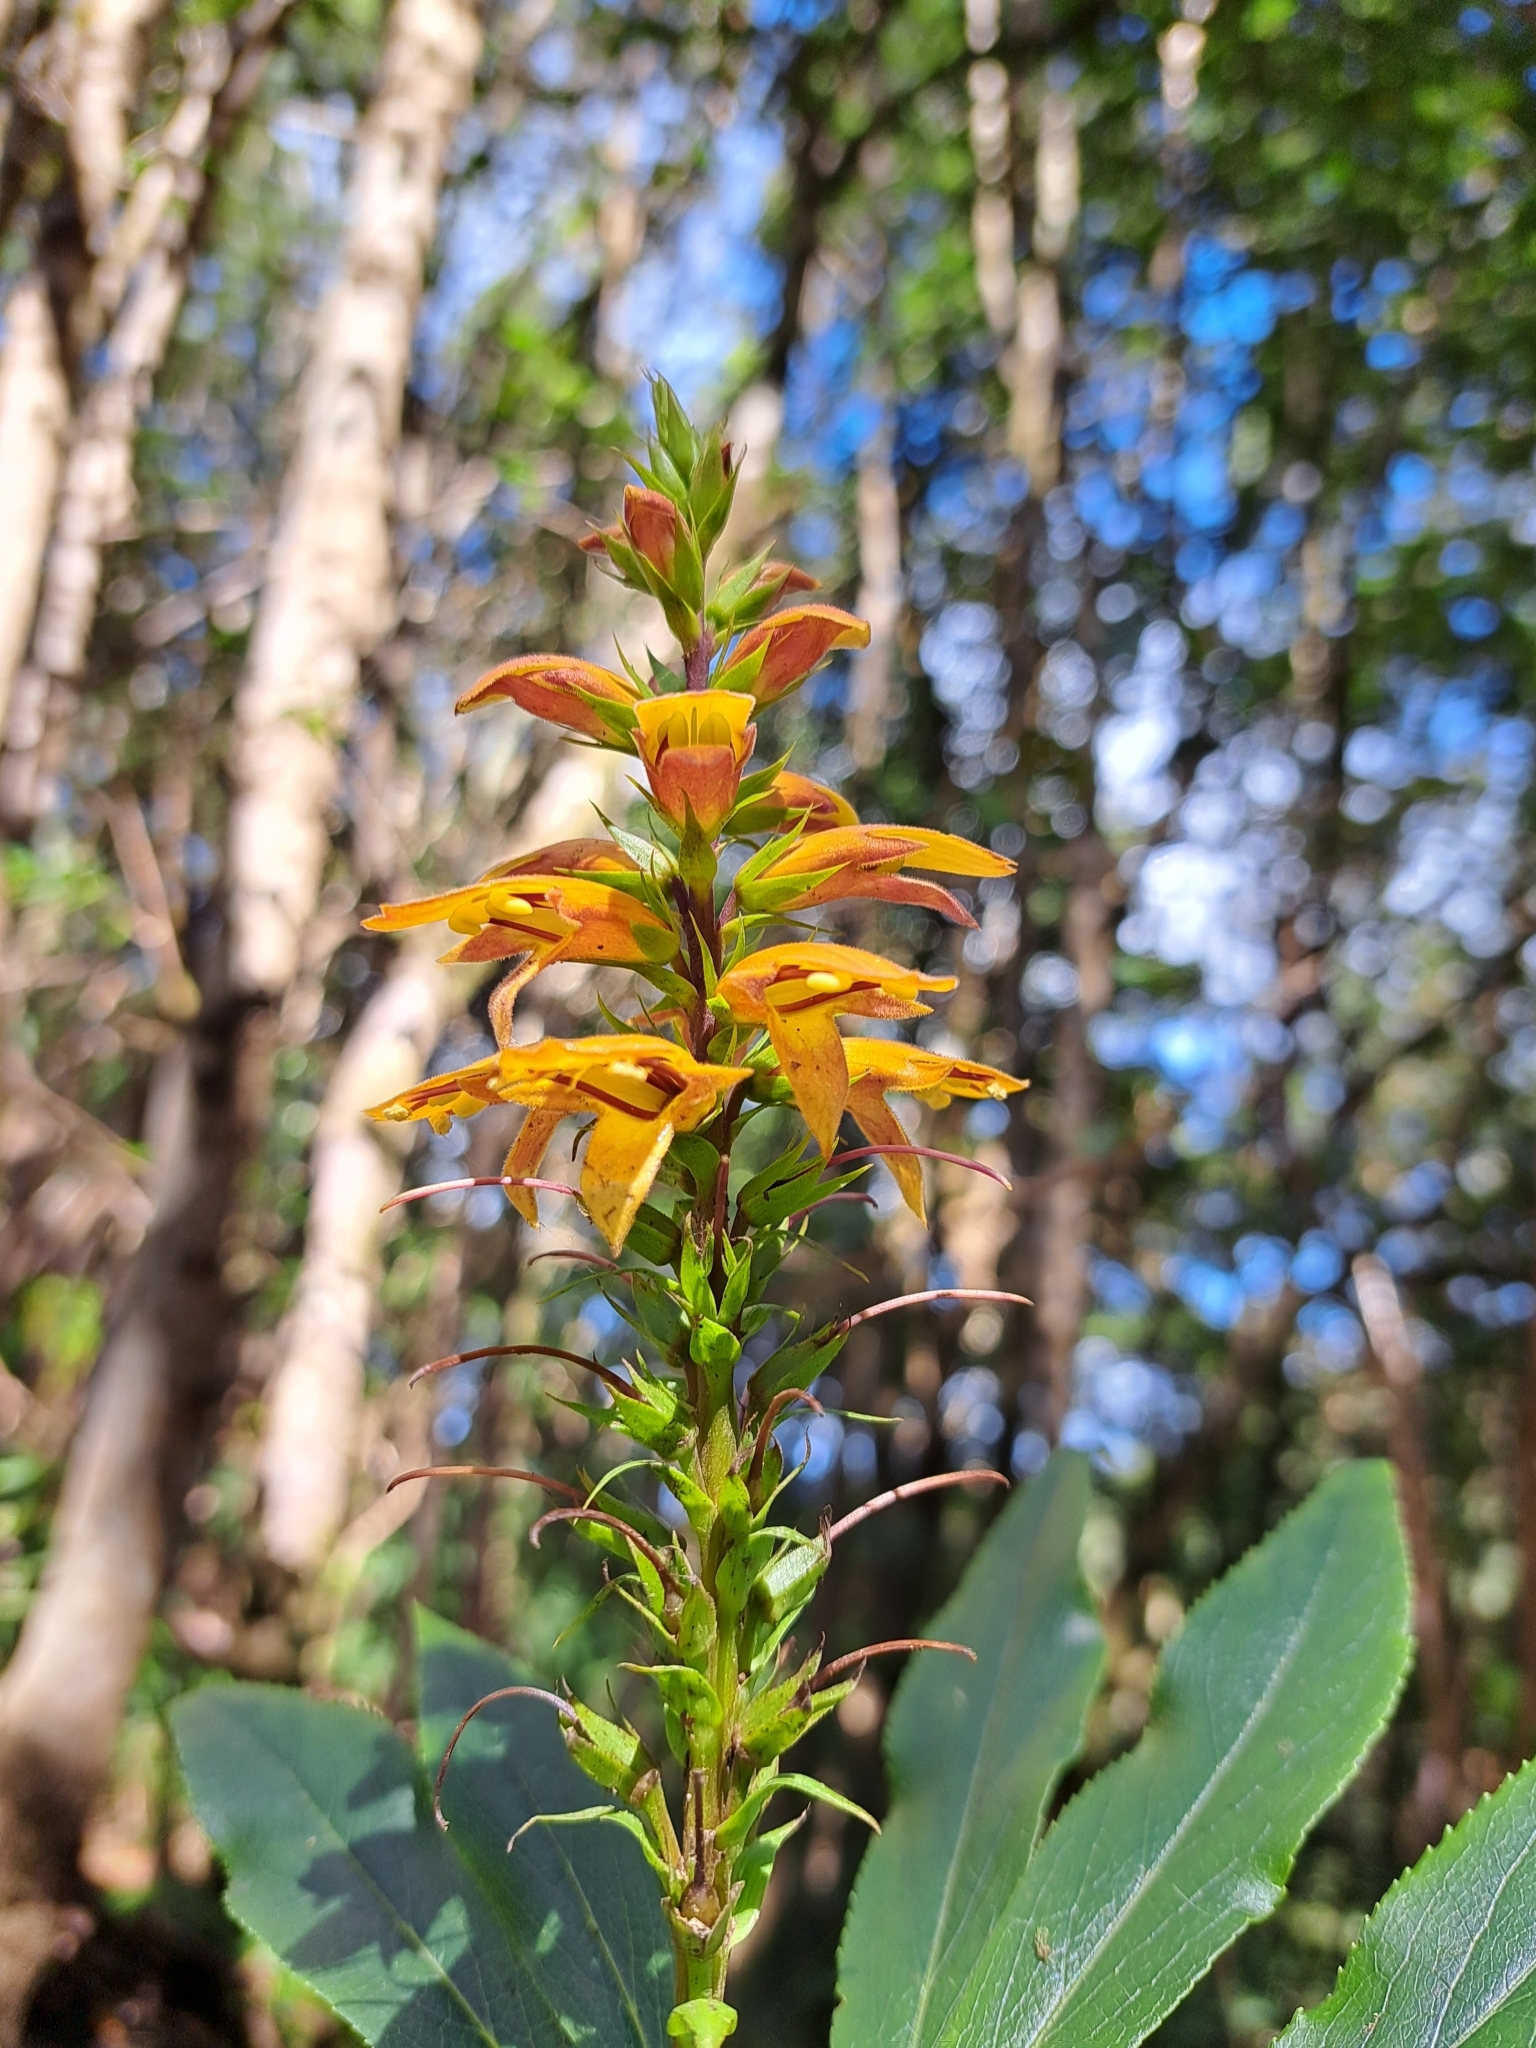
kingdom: Plantae
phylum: Tracheophyta
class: Magnoliopsida
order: Lamiales
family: Plantaginaceae
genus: Digitalis
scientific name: Digitalis canariensis
